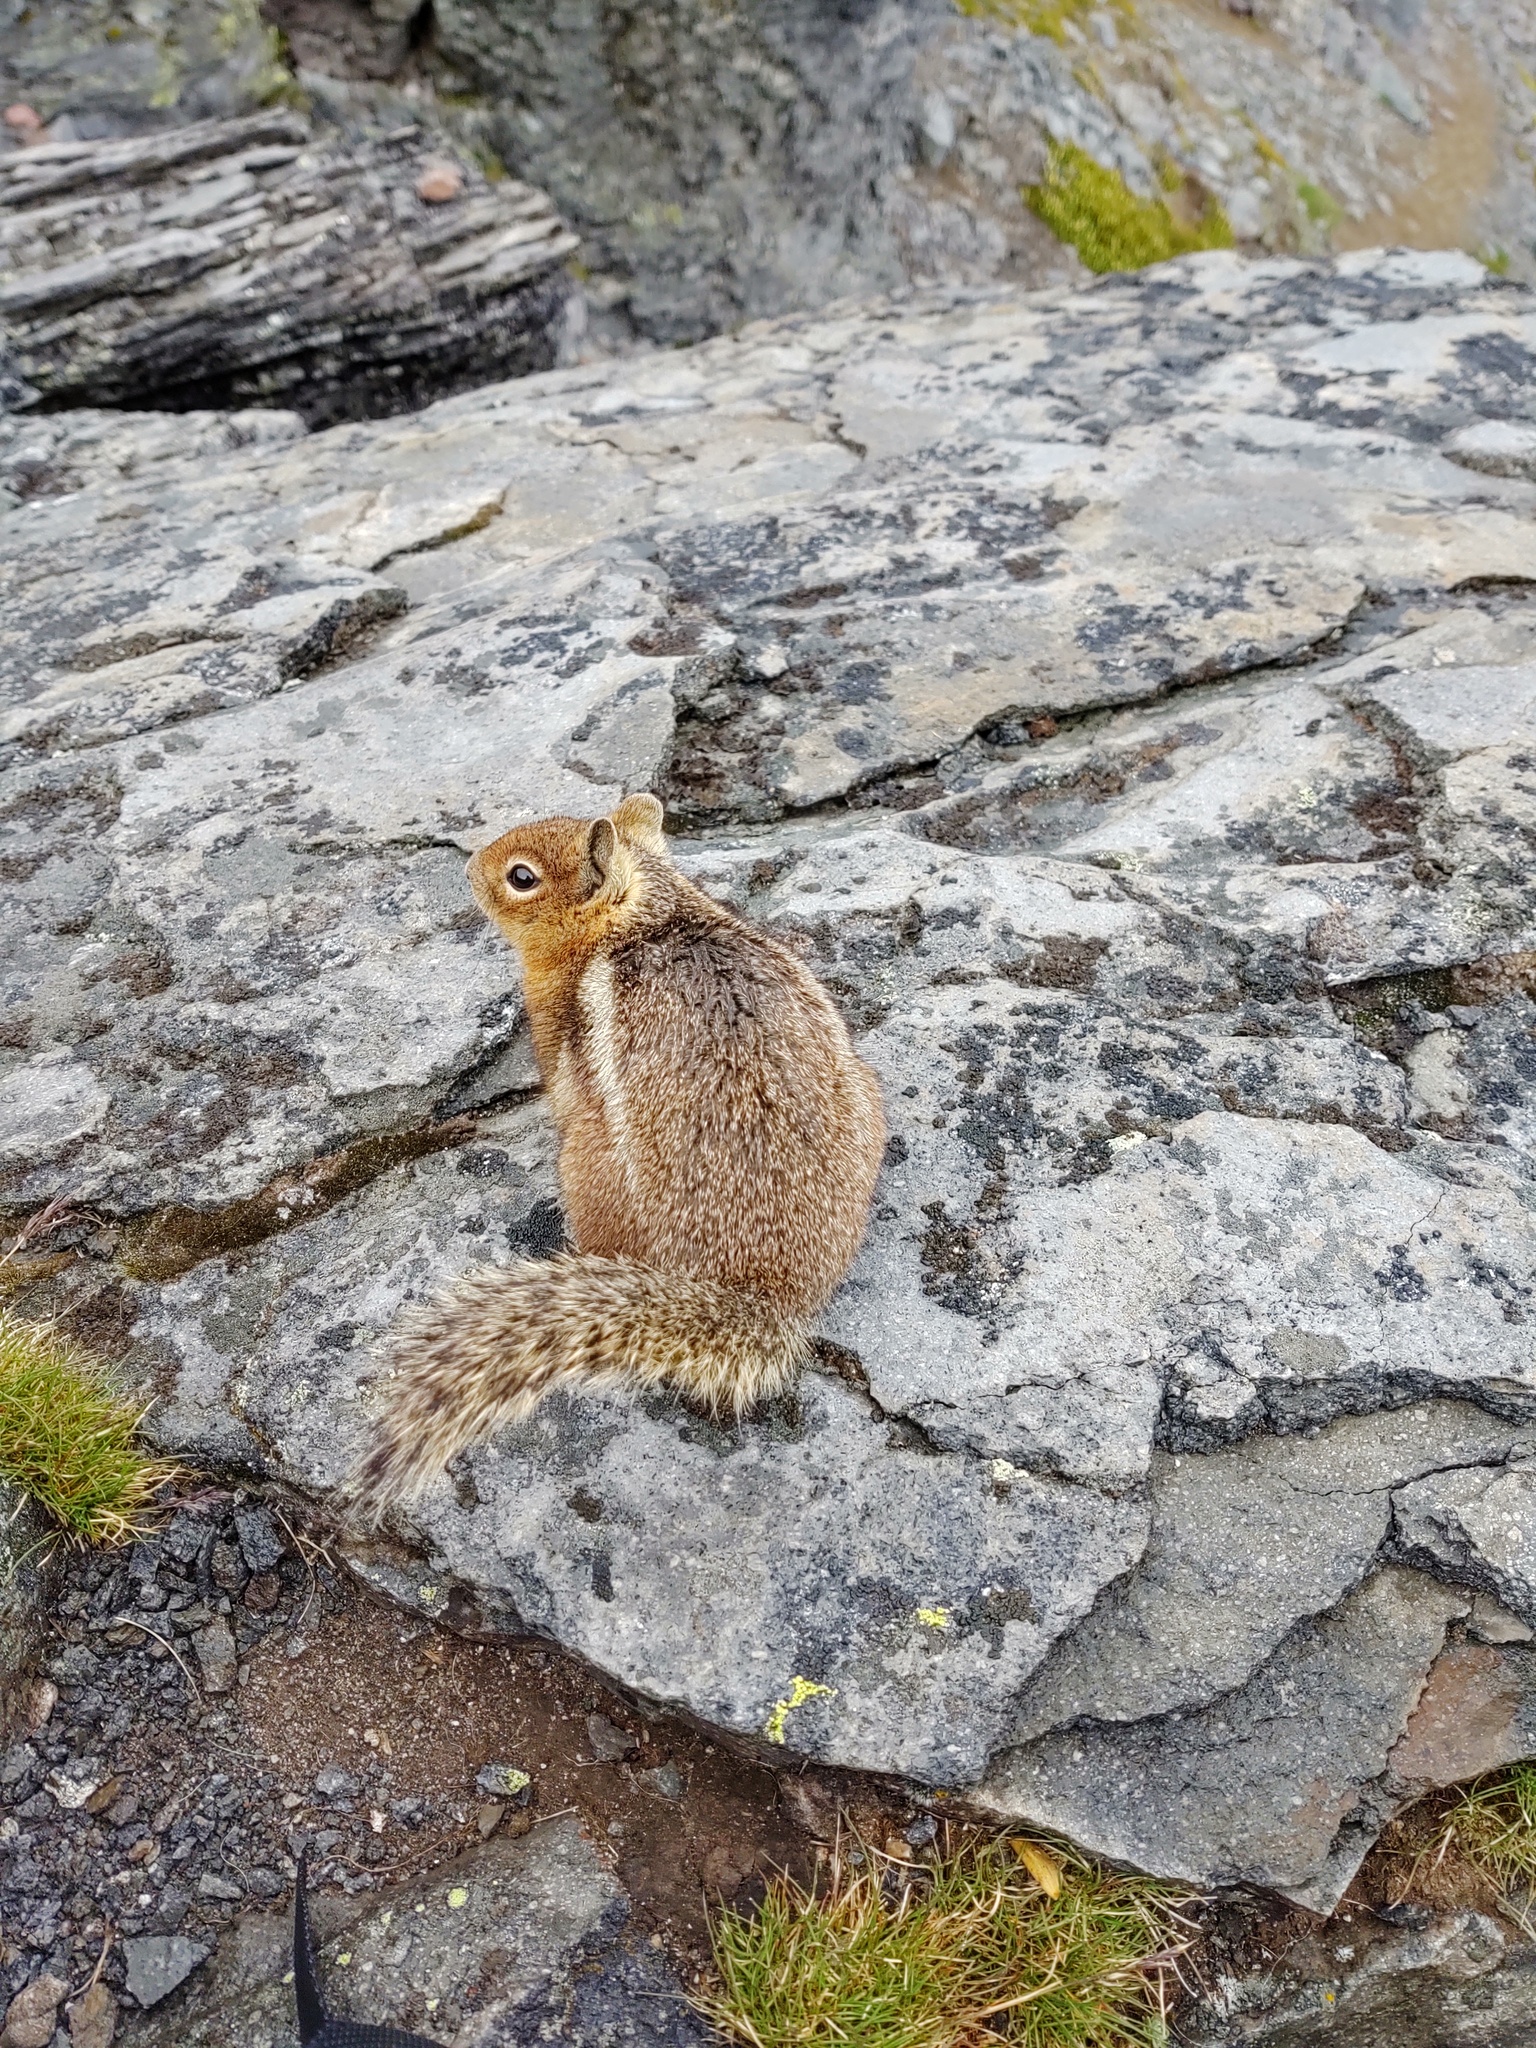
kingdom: Animalia
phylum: Chordata
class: Mammalia
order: Rodentia
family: Sciuridae
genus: Callospermophilus
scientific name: Callospermophilus saturatus
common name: Cascade golden-mantled ground squirrel
